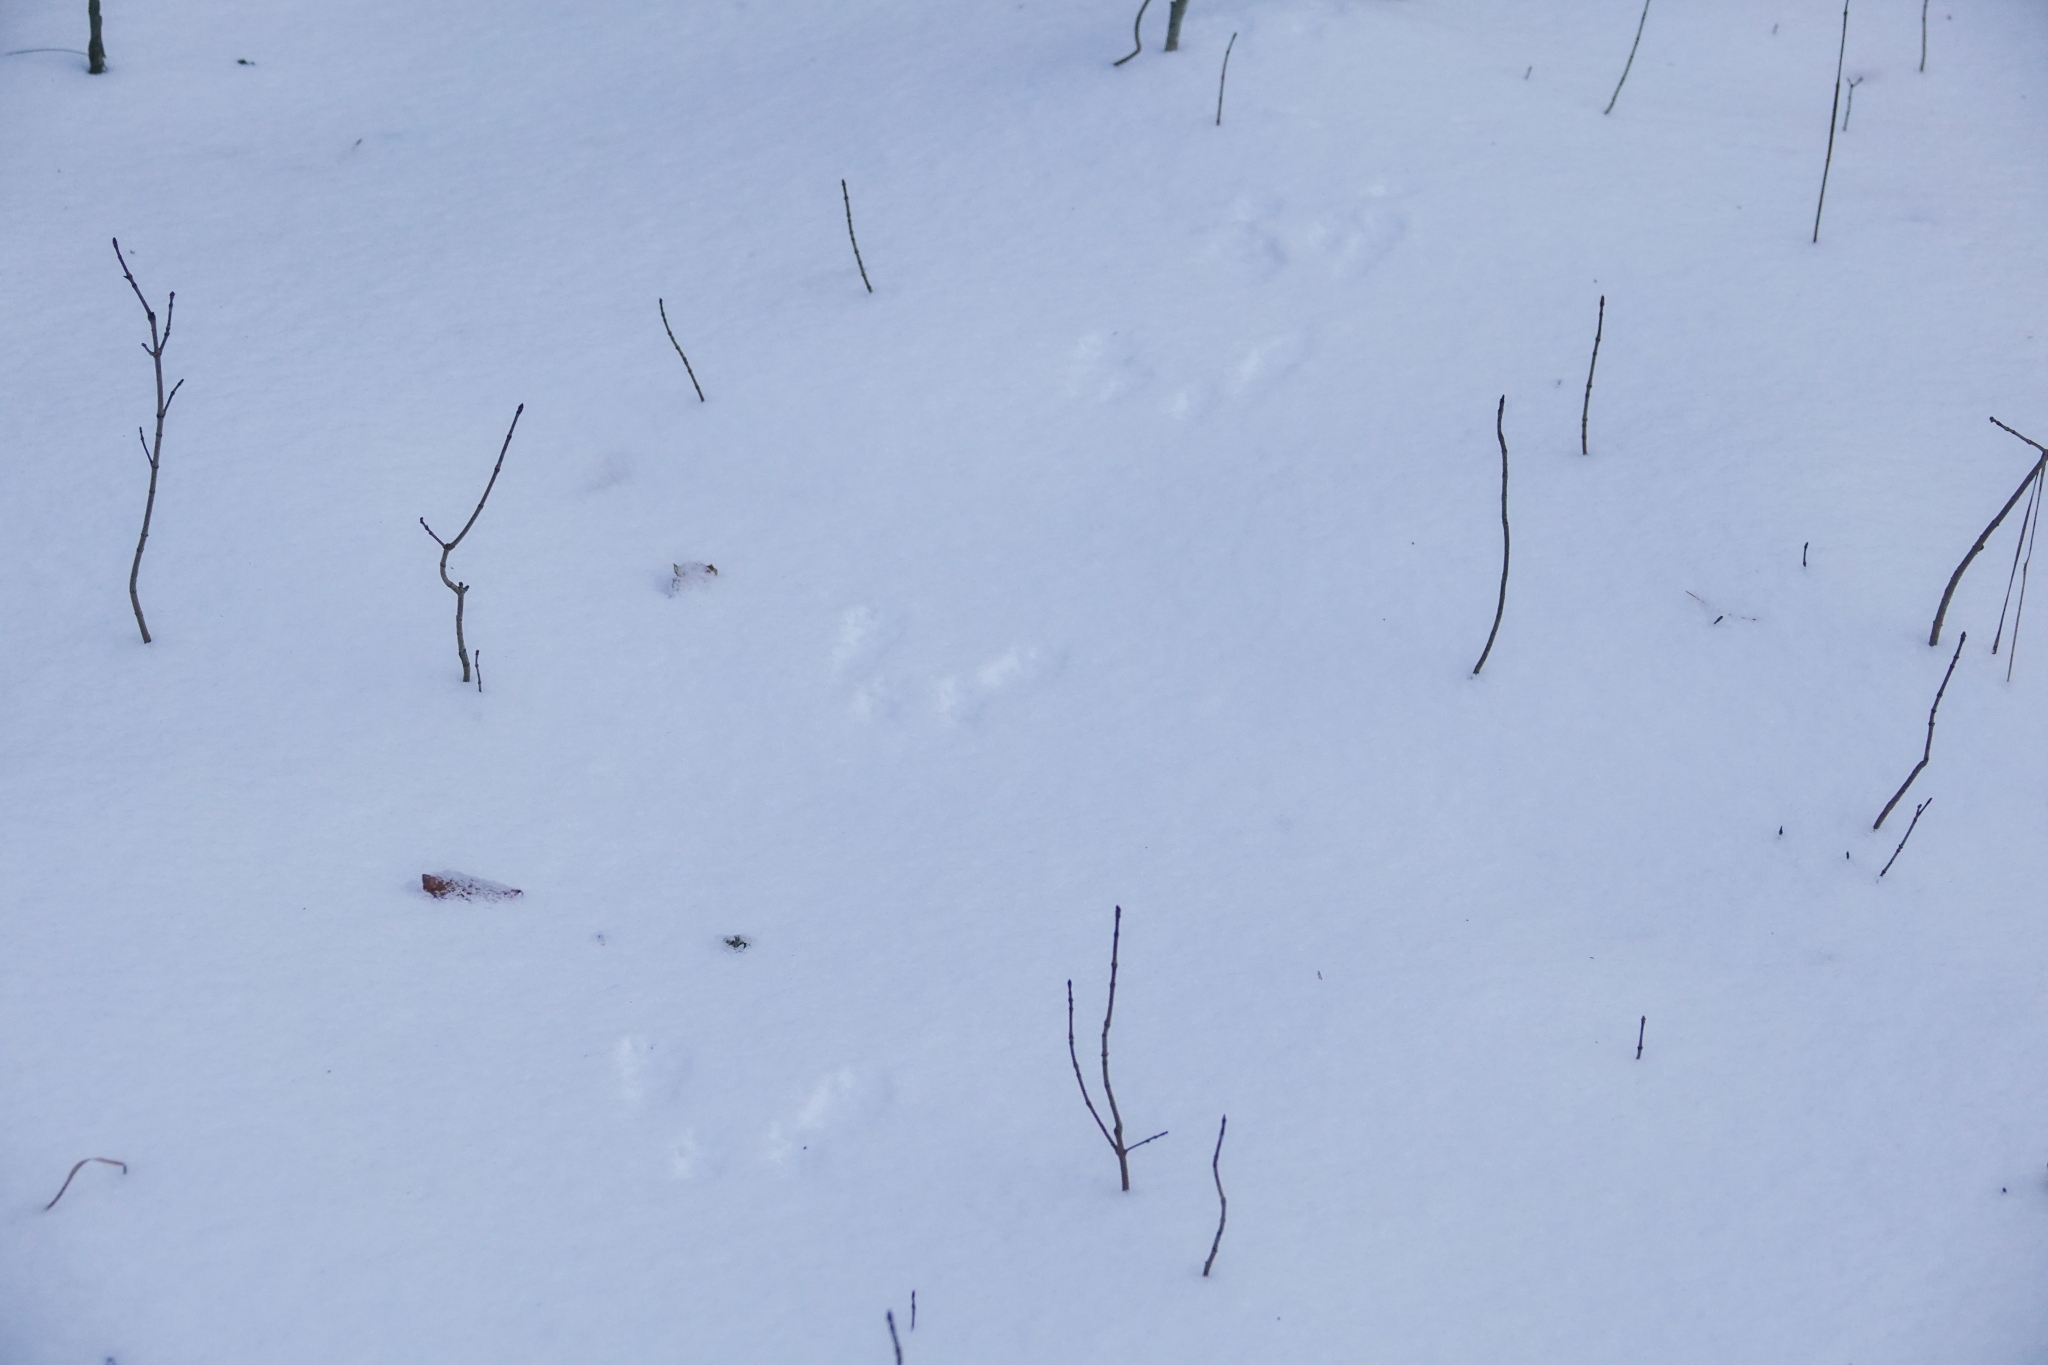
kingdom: Animalia
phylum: Chordata
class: Mammalia
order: Rodentia
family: Sciuridae
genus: Sciurus
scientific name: Sciurus vulgaris
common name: Eurasian red squirrel
